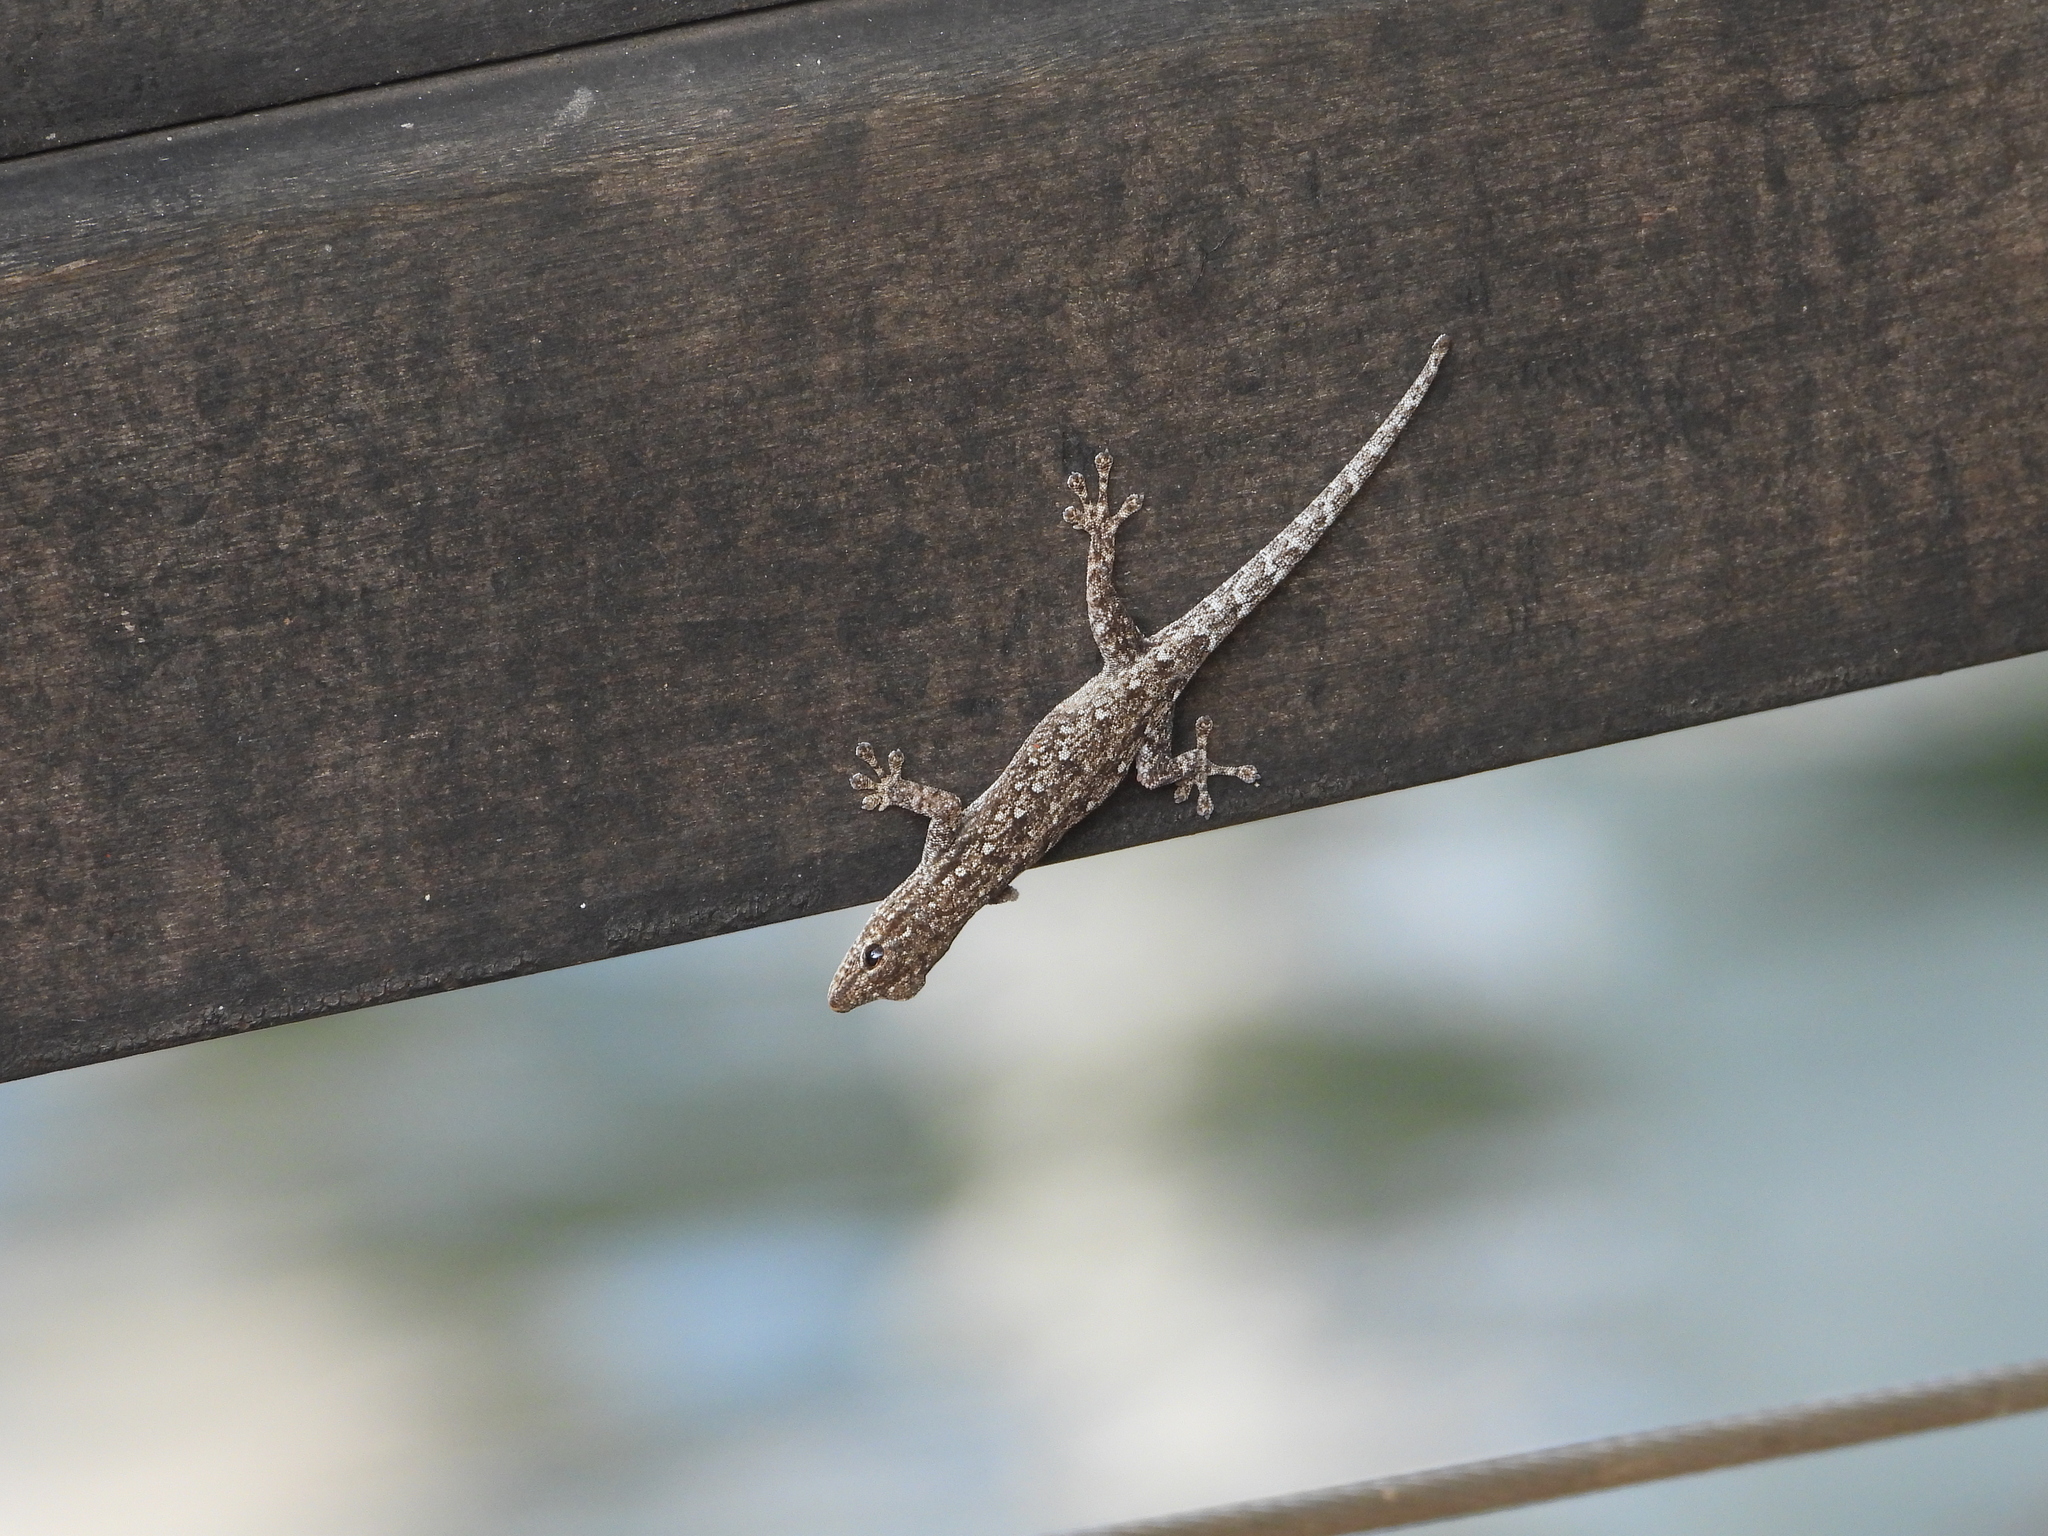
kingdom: Animalia
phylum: Chordata
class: Squamata
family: Gekkonidae
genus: Lygodactylus
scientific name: Lygodactylus chobiensis
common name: Okavango dwarf gecko
